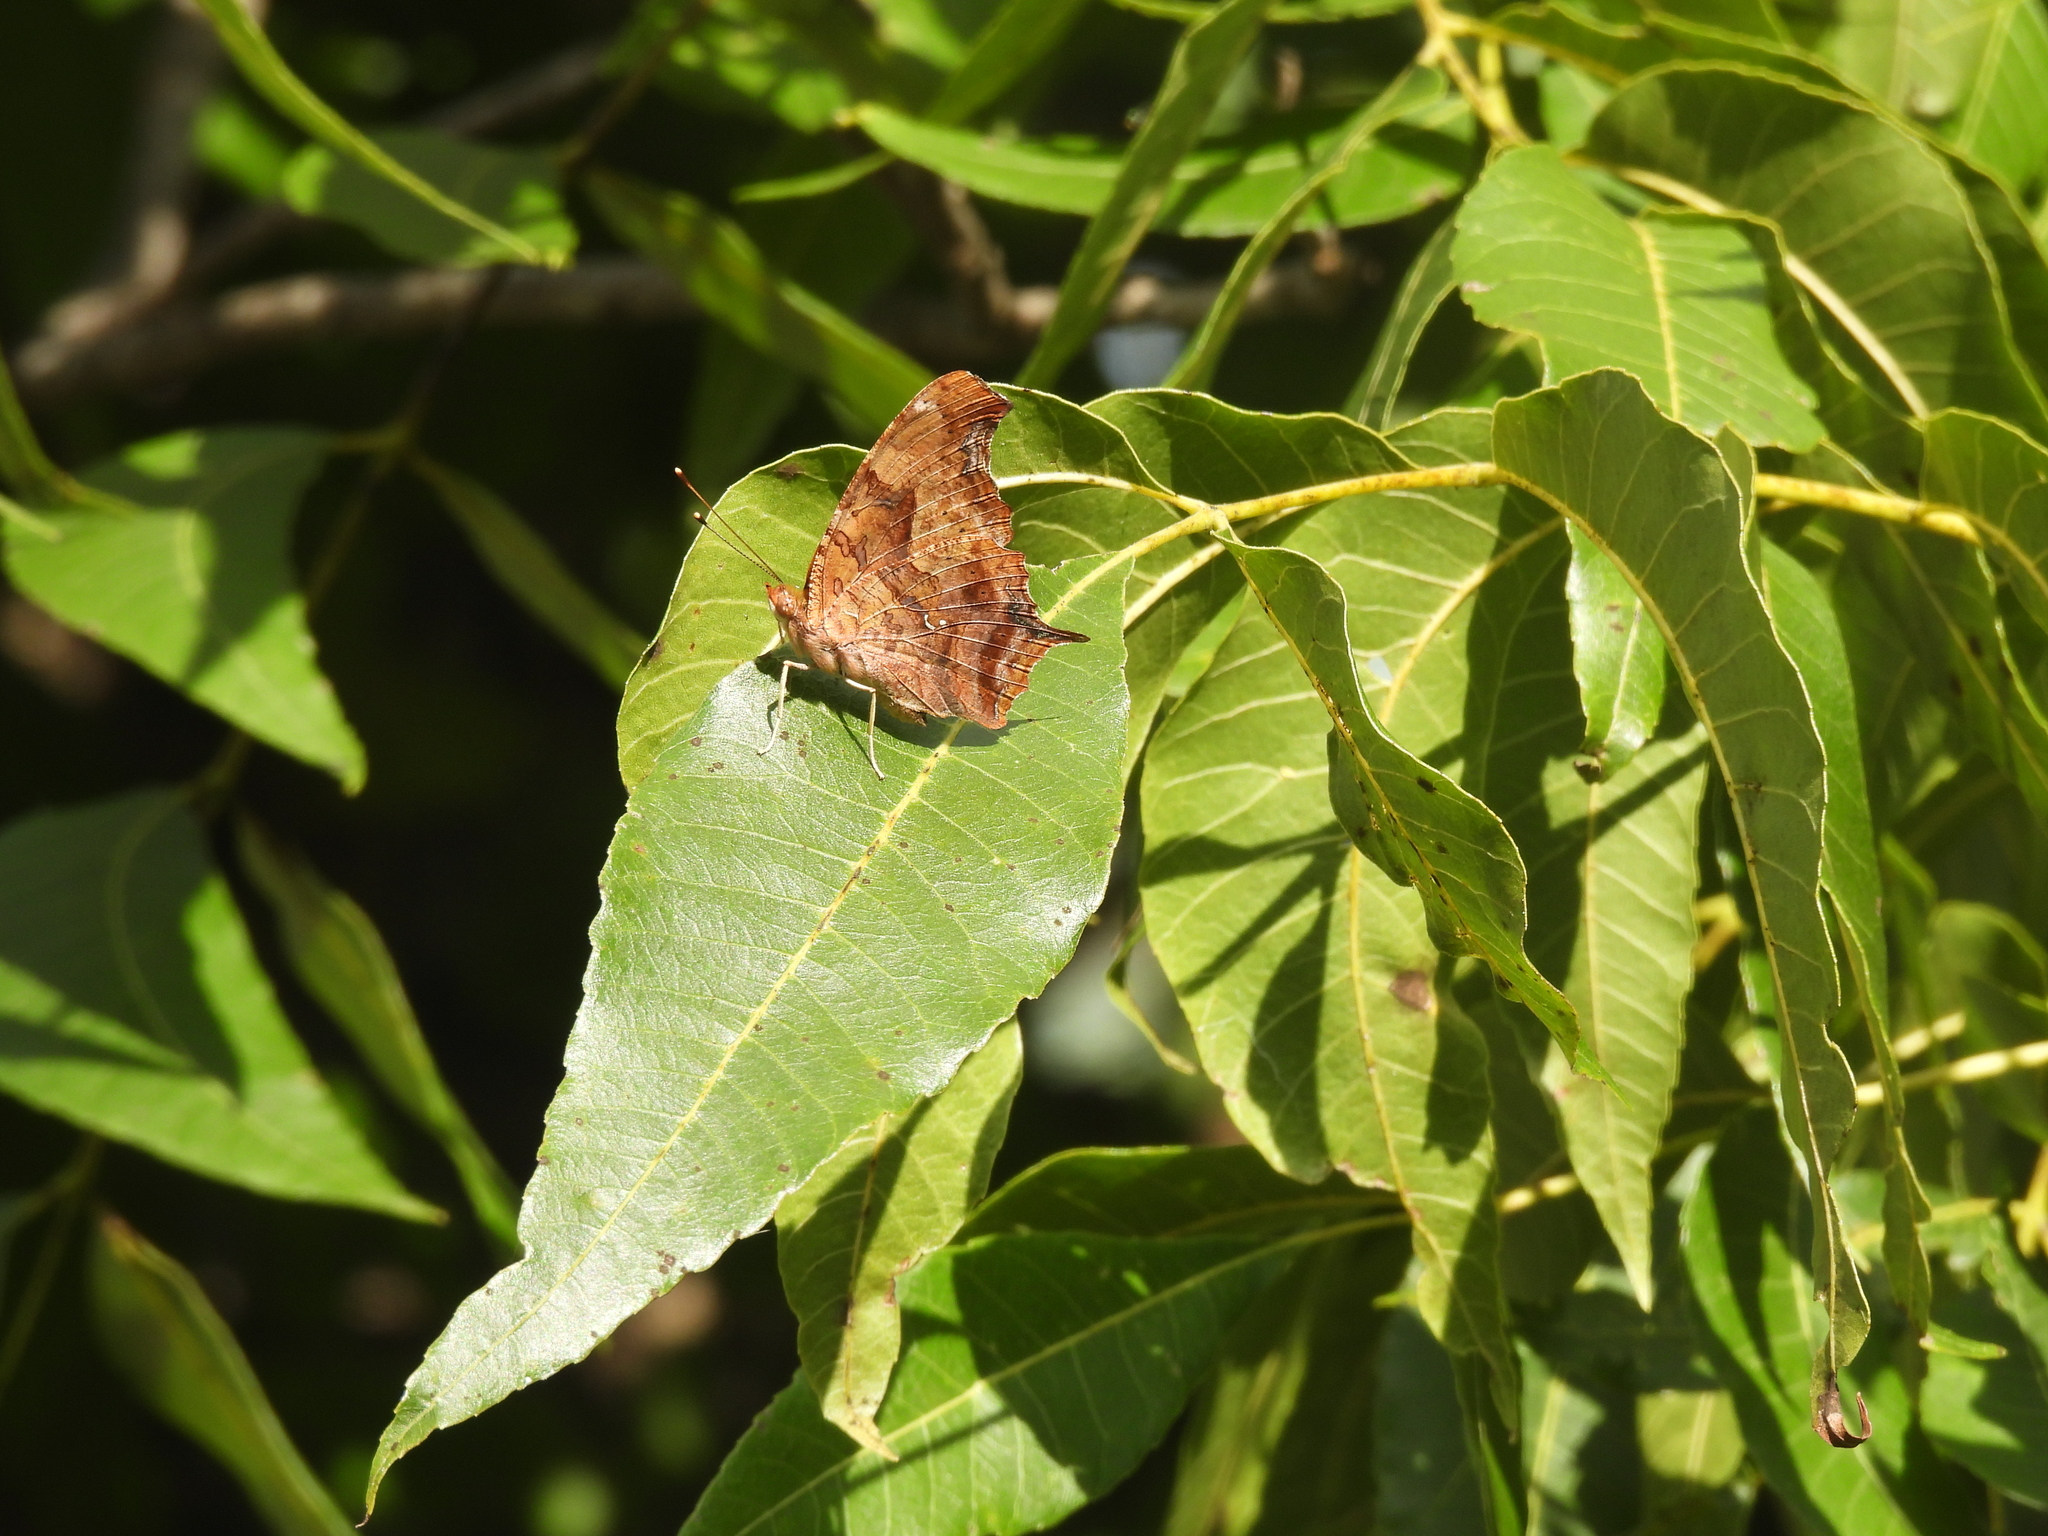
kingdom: Animalia
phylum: Arthropoda
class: Insecta
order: Lepidoptera
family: Nymphalidae
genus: Polygonia
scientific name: Polygonia interrogationis
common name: Question mark
